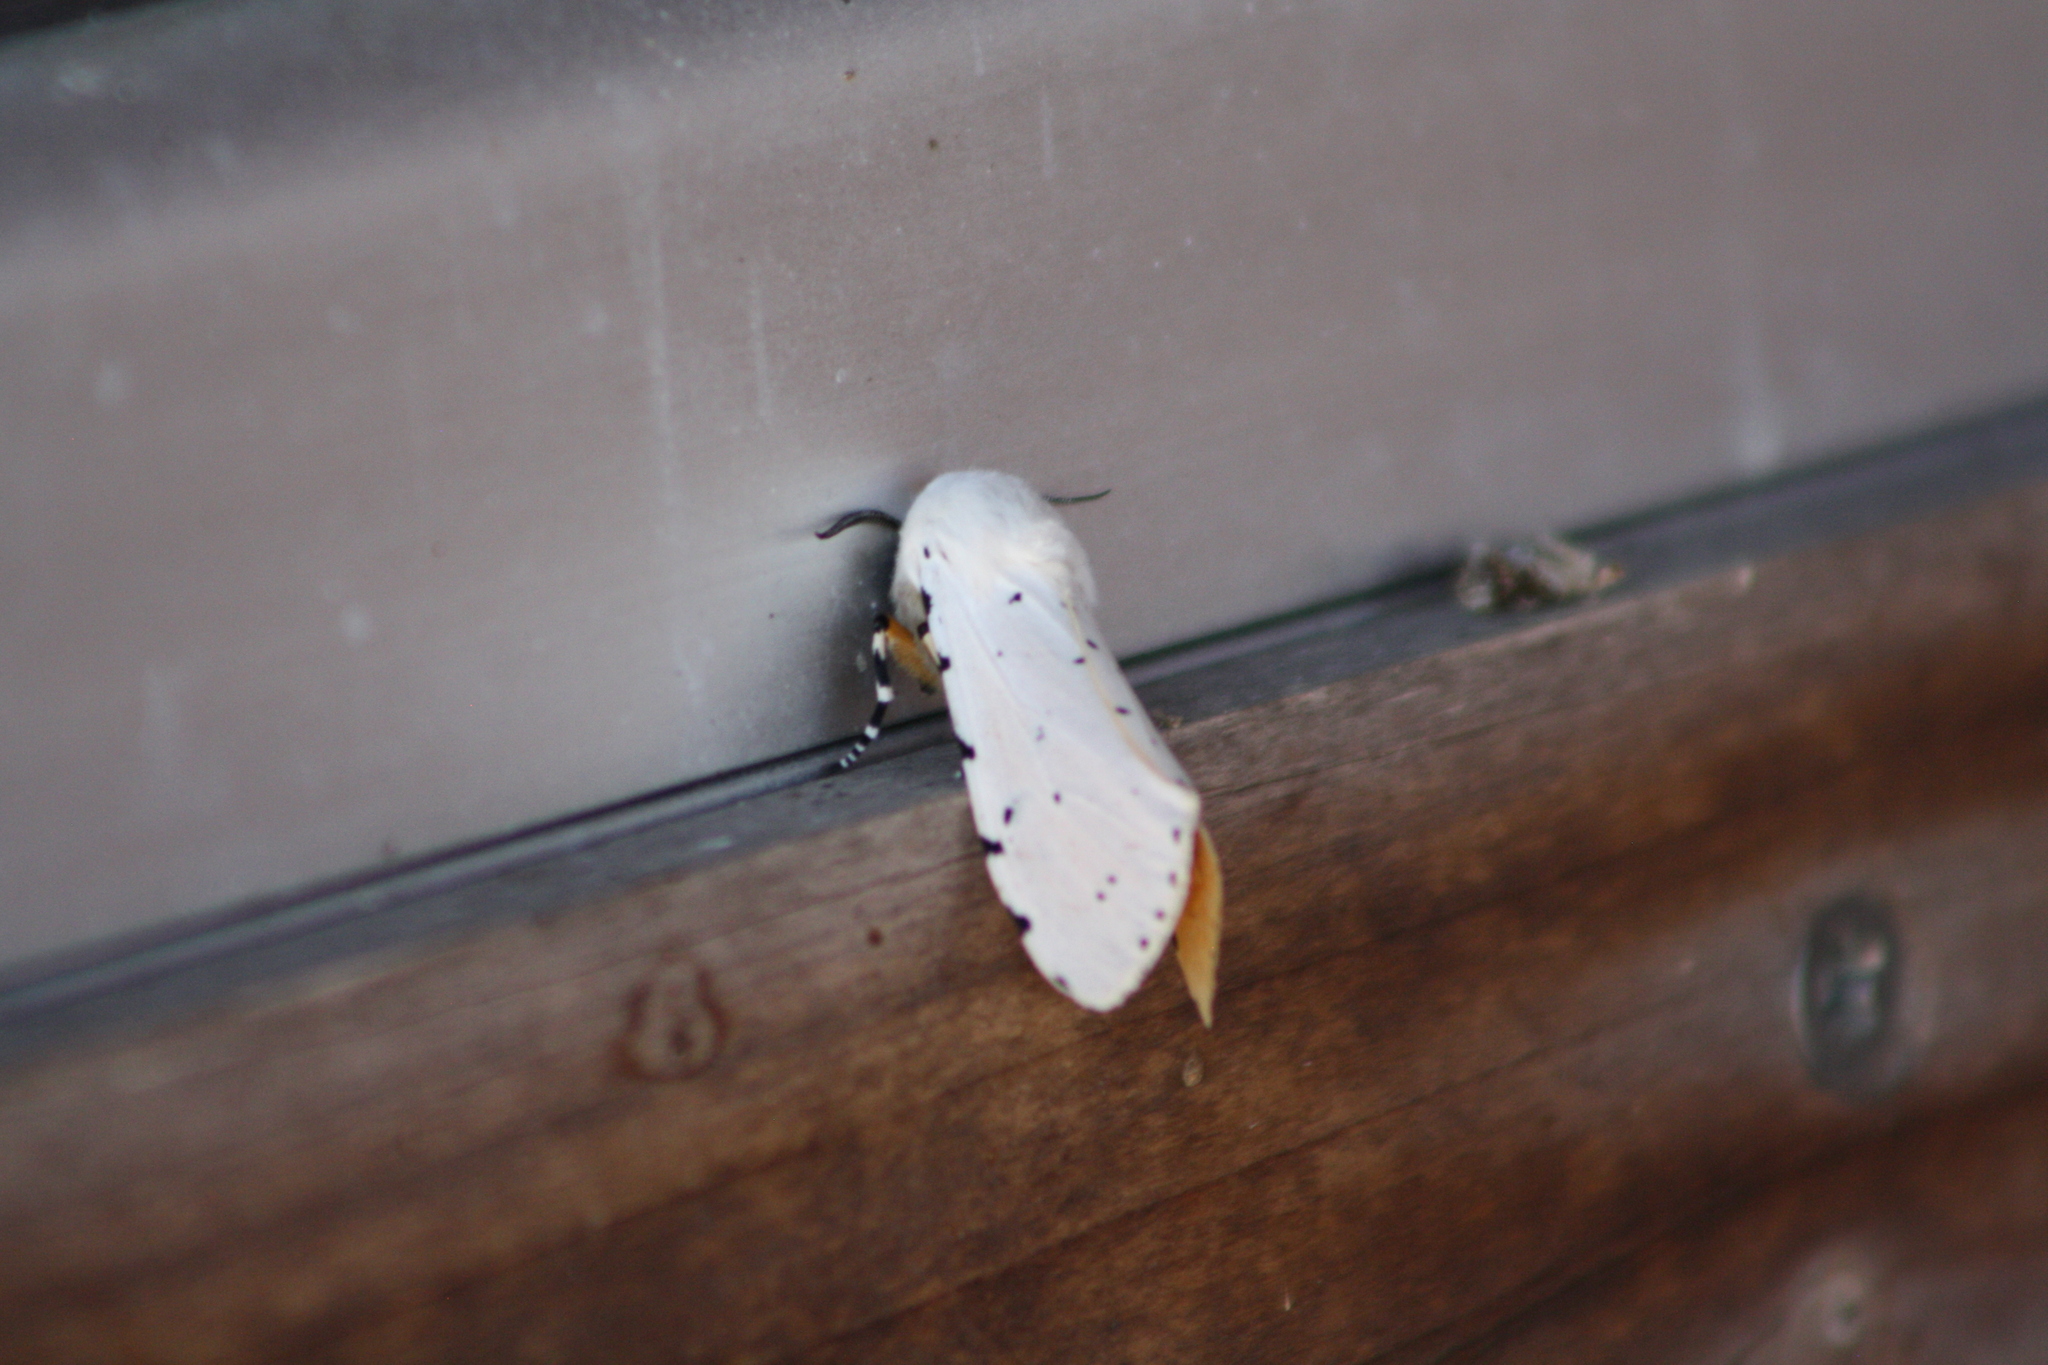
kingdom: Animalia
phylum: Arthropoda
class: Insecta
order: Lepidoptera
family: Erebidae
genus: Estigmene
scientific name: Estigmene acrea
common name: Salt marsh moth
